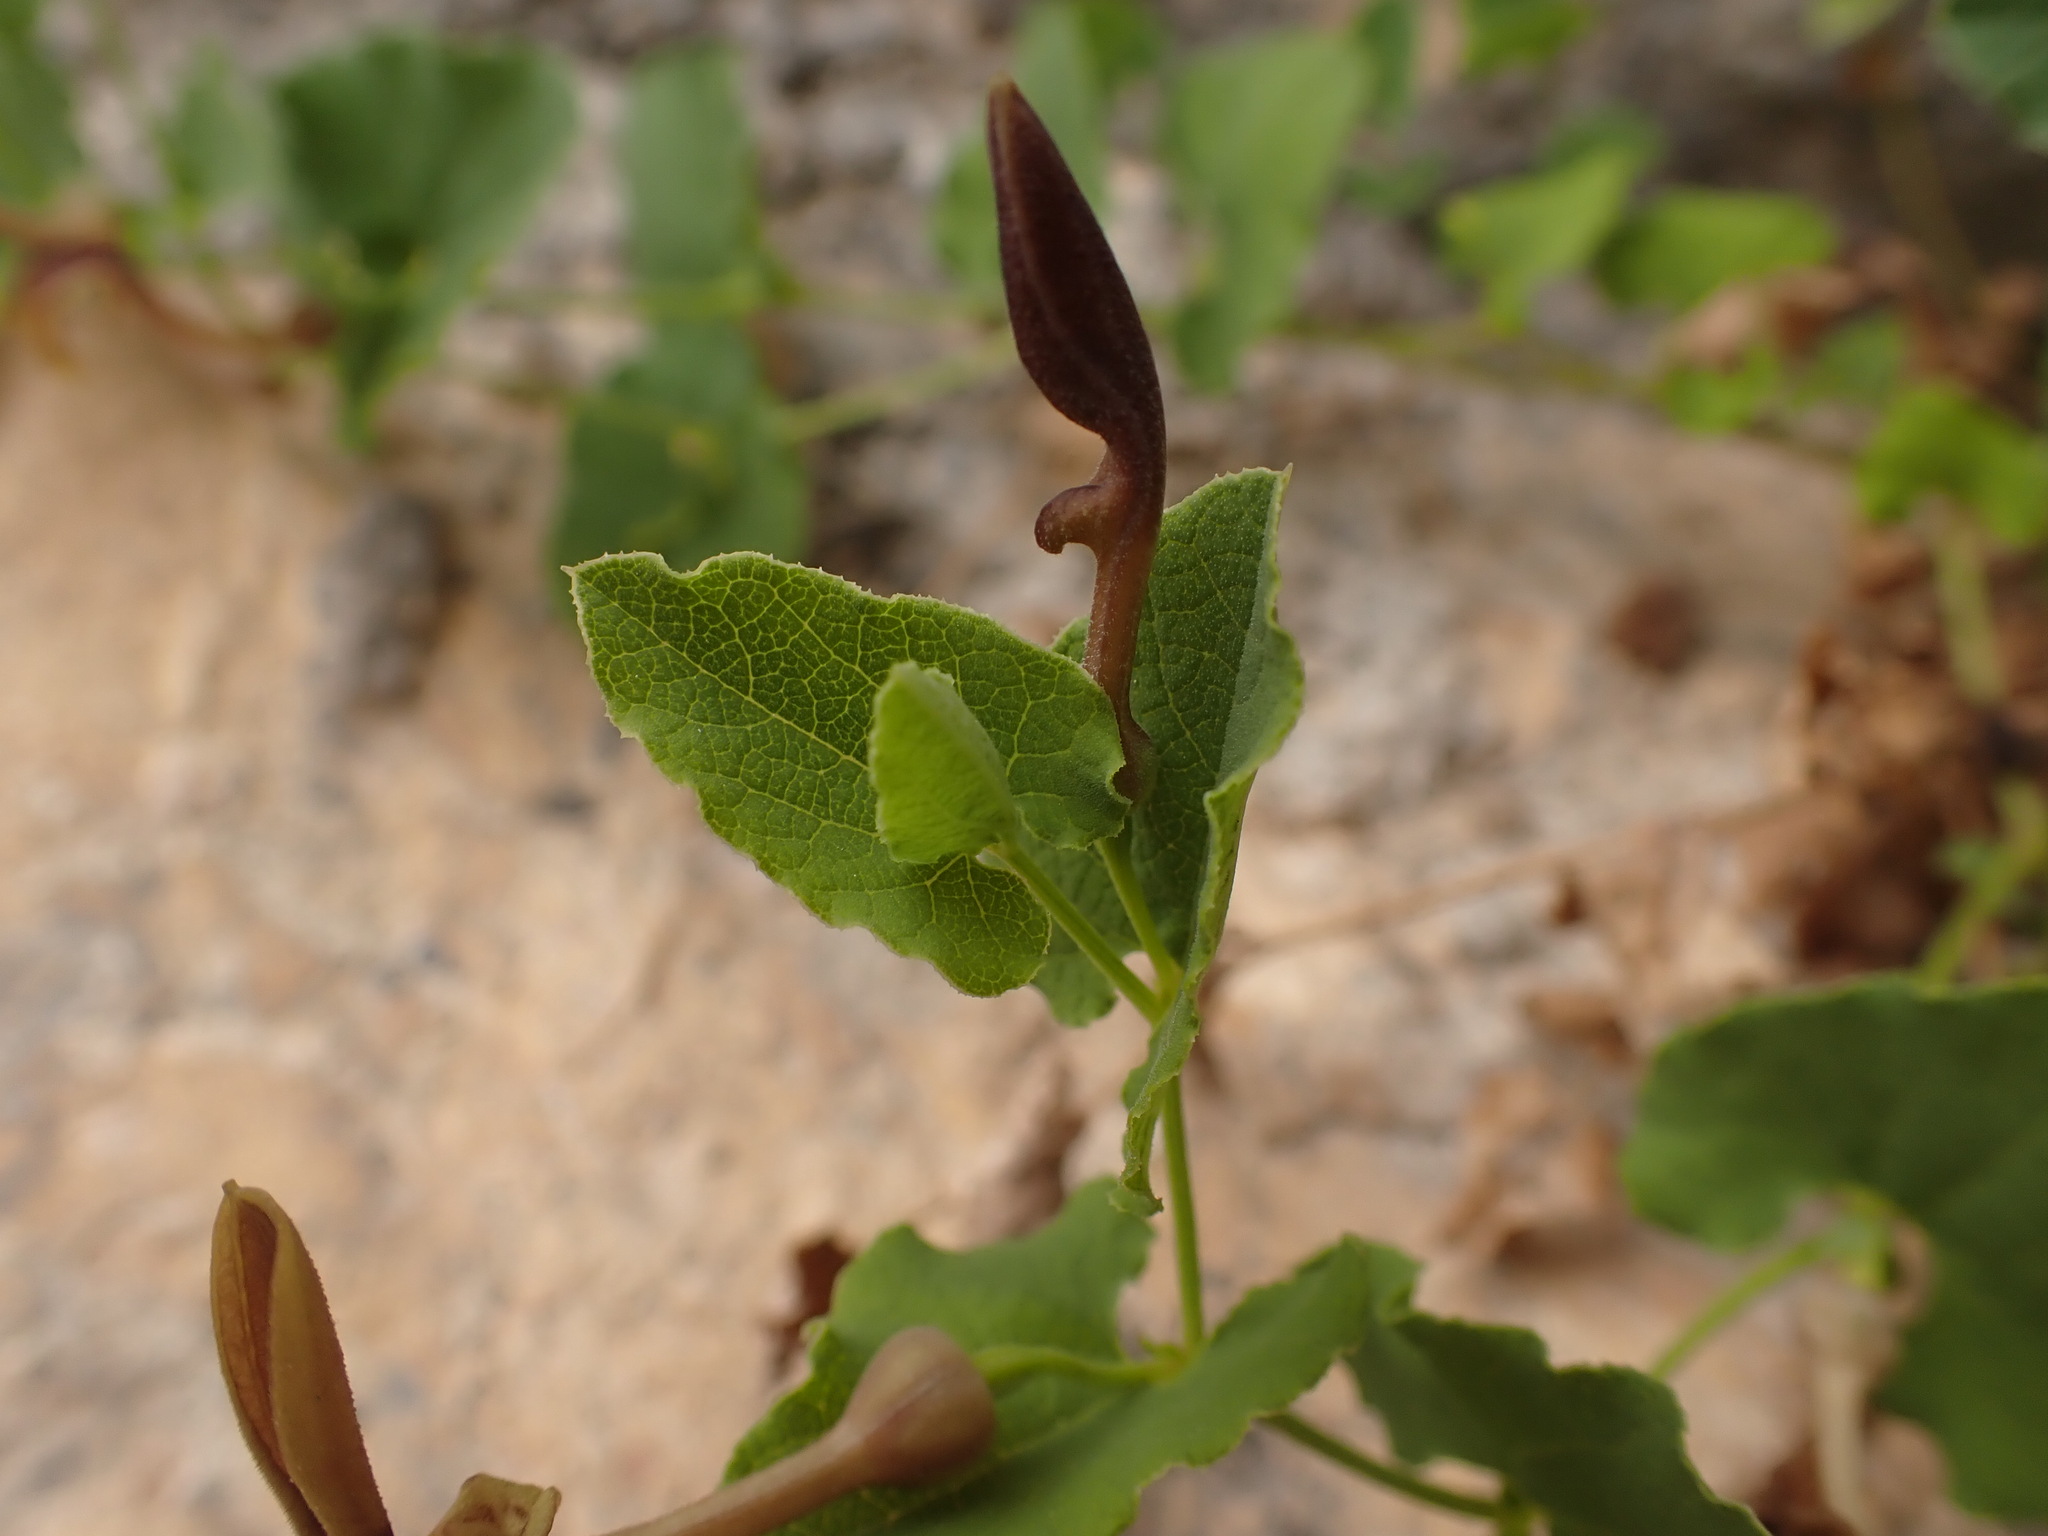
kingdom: Plantae
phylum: Tracheophyta
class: Magnoliopsida
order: Piperales
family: Aristolochiaceae
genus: Aristolochia
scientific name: Aristolochia pistolochia
